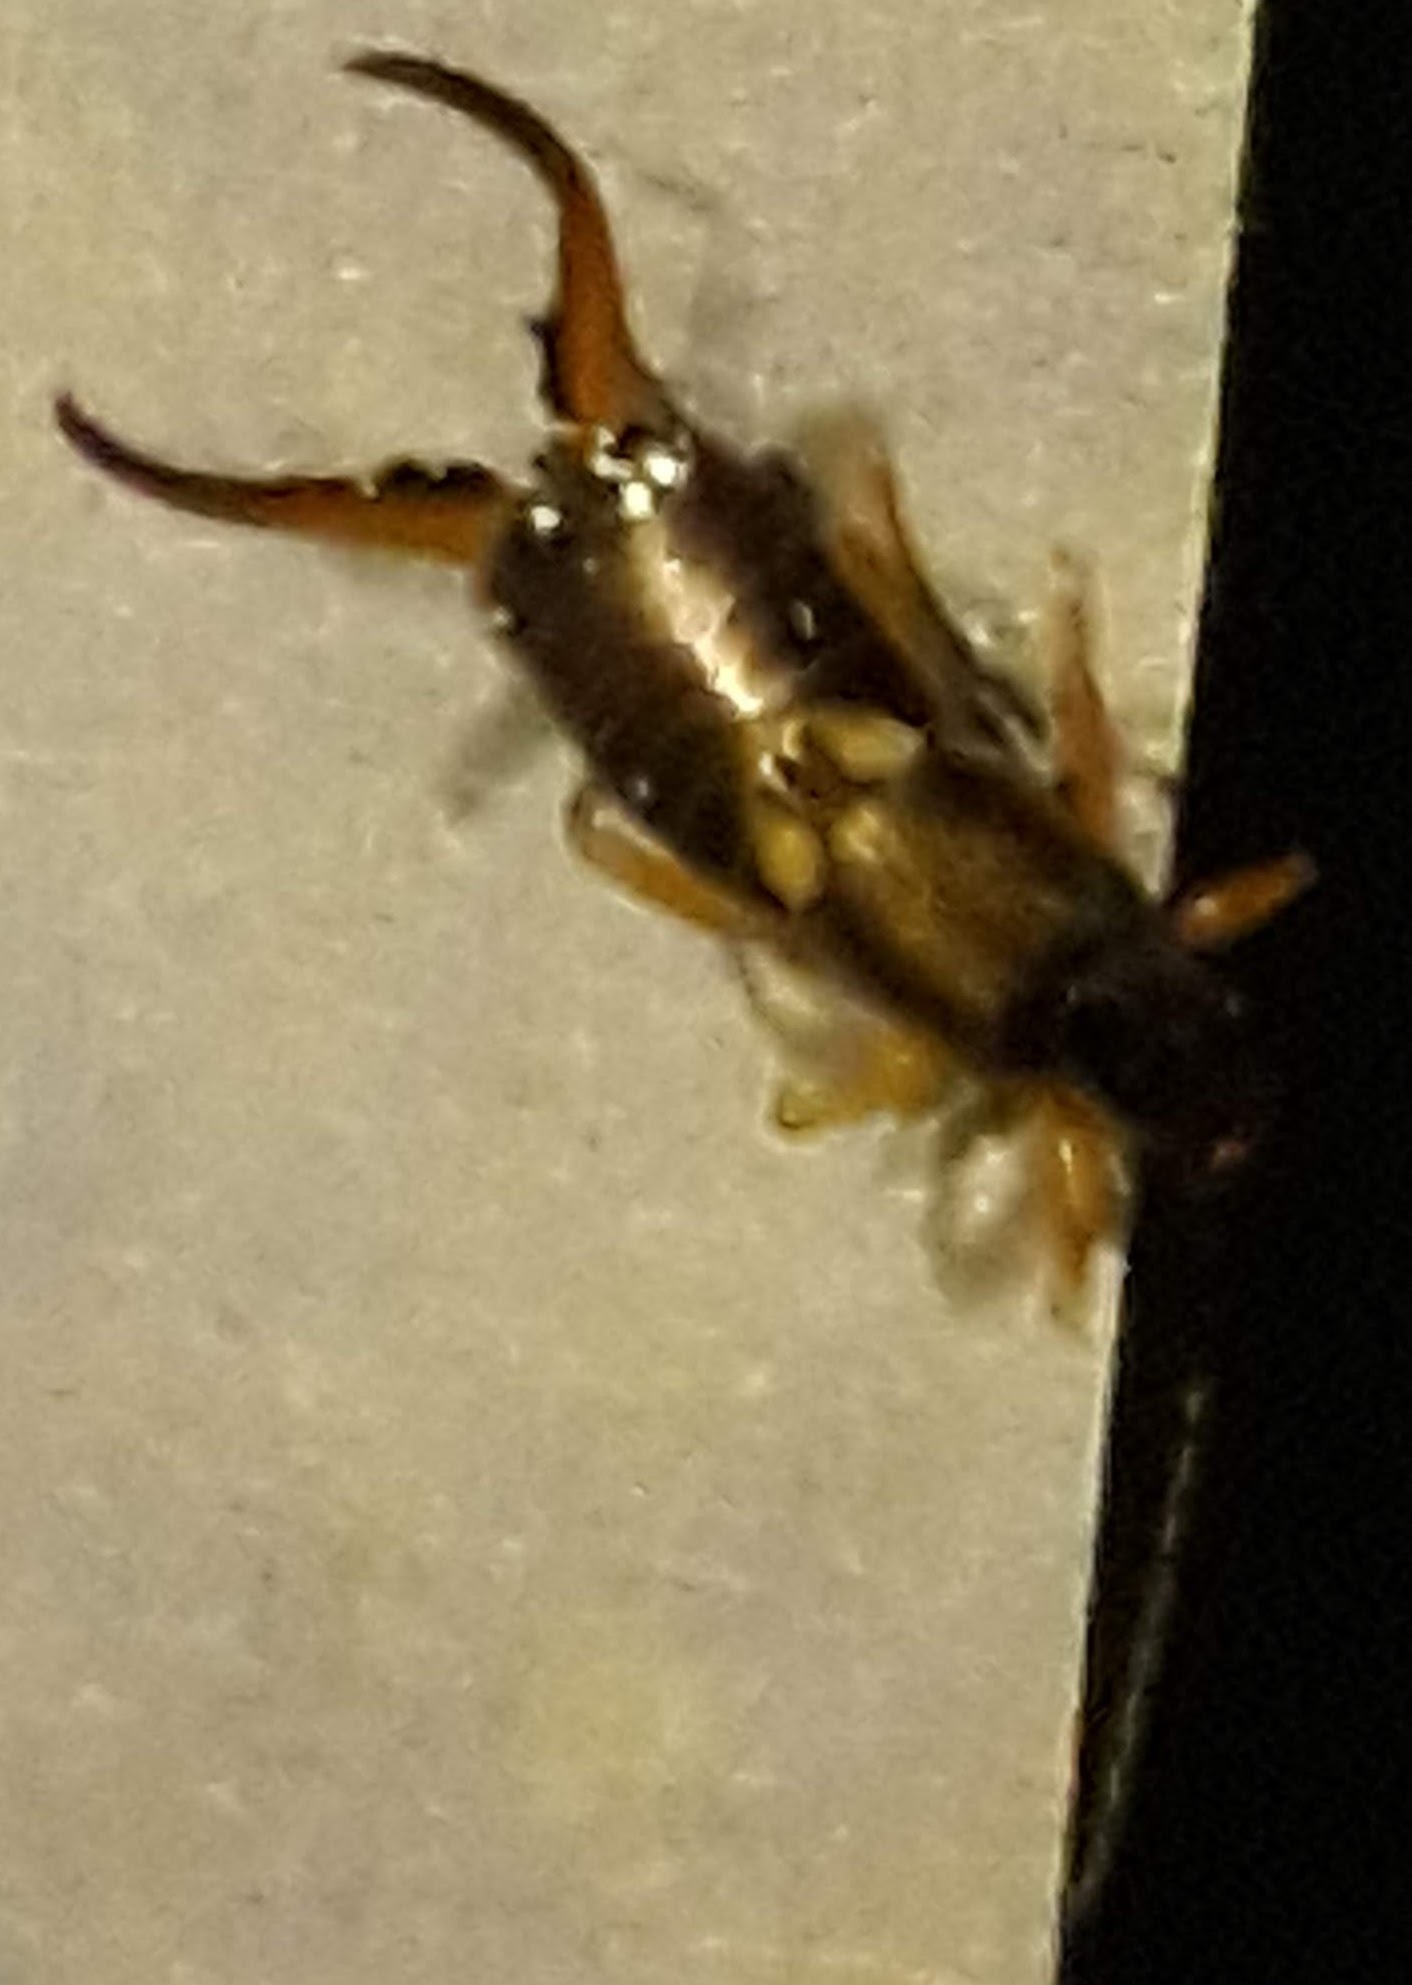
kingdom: Animalia
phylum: Arthropoda
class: Insecta
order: Dermaptera
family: Forficulidae
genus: Forficula
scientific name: Forficula
